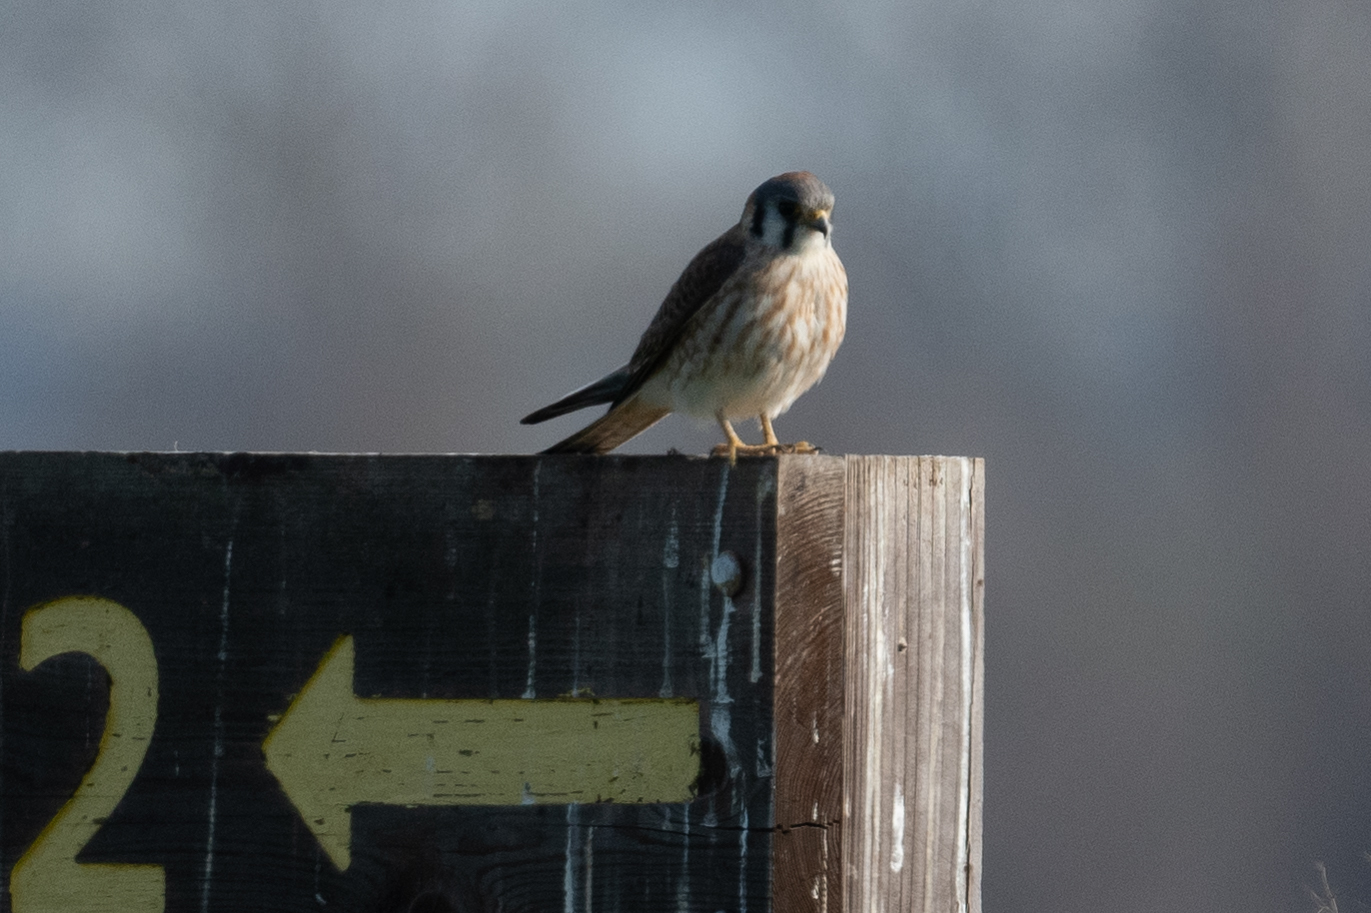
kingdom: Animalia
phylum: Chordata
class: Aves
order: Falconiformes
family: Falconidae
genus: Falco
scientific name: Falco sparverius
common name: American kestrel
